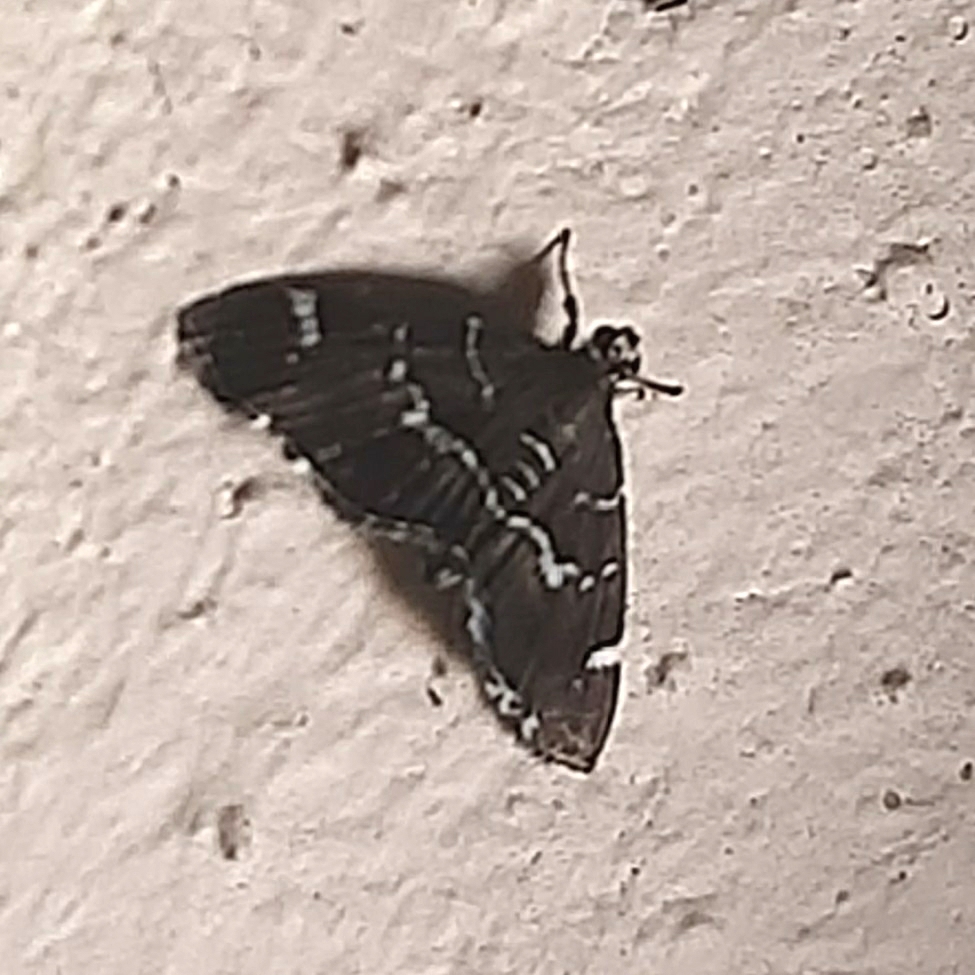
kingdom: Animalia
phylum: Arthropoda
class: Insecta
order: Lepidoptera
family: Crambidae
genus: Hymenia
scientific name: Hymenia perspectalis
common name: Spotted beet webworm
